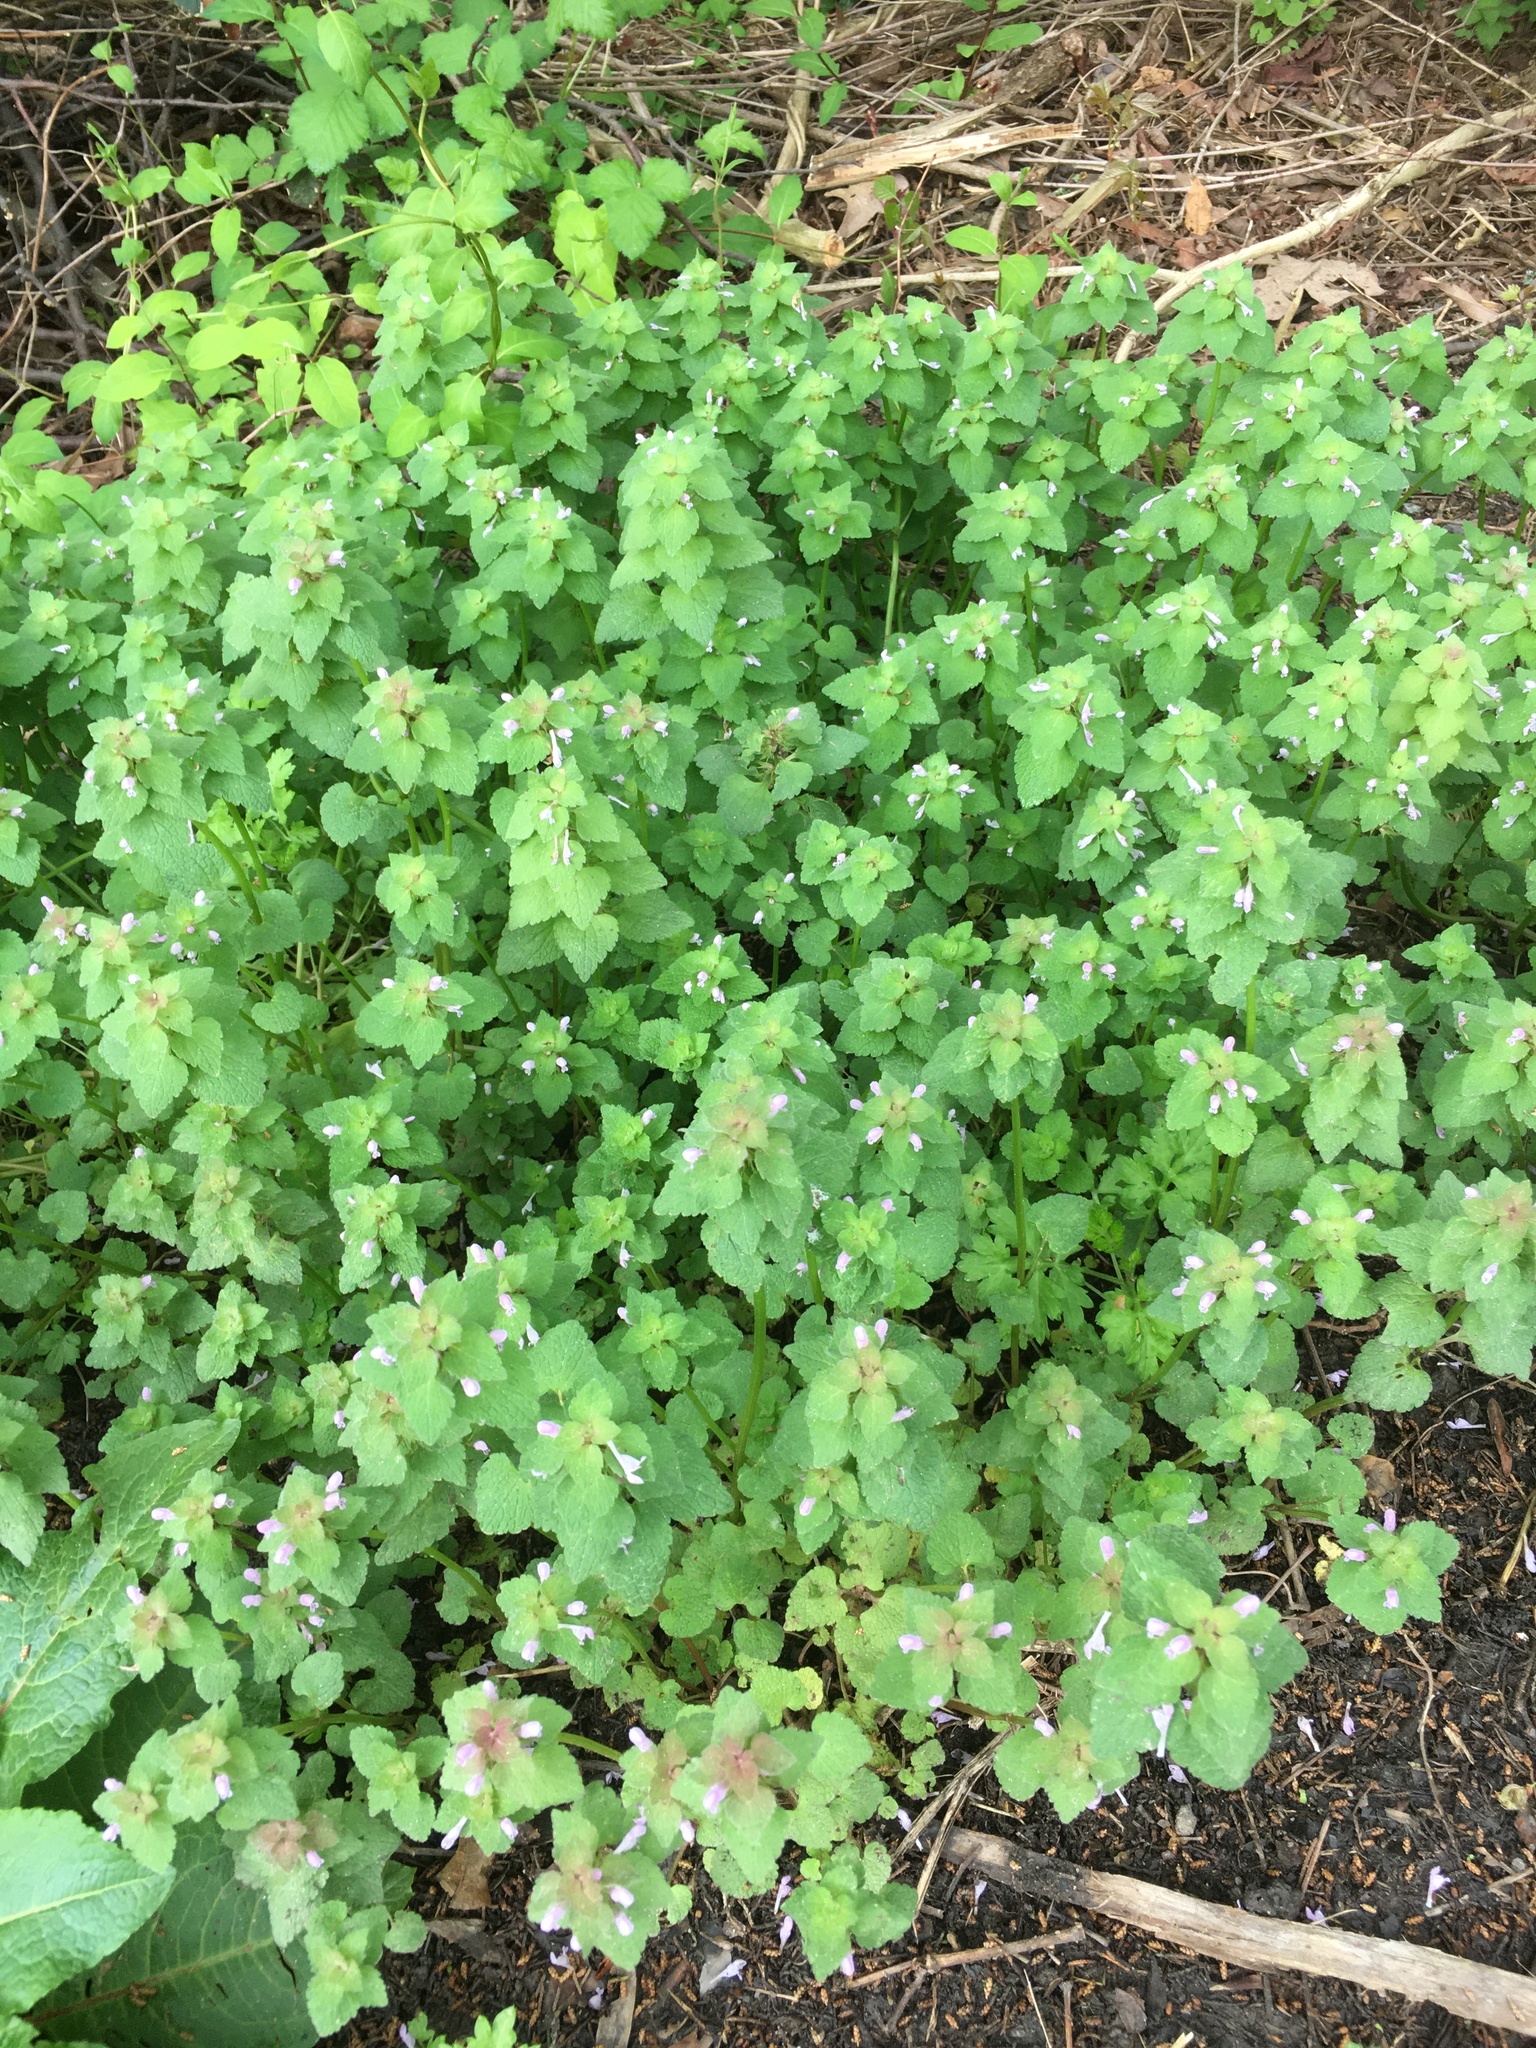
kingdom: Plantae
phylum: Tracheophyta
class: Magnoliopsida
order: Lamiales
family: Lamiaceae
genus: Lamium
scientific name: Lamium purpureum
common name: Red dead-nettle
